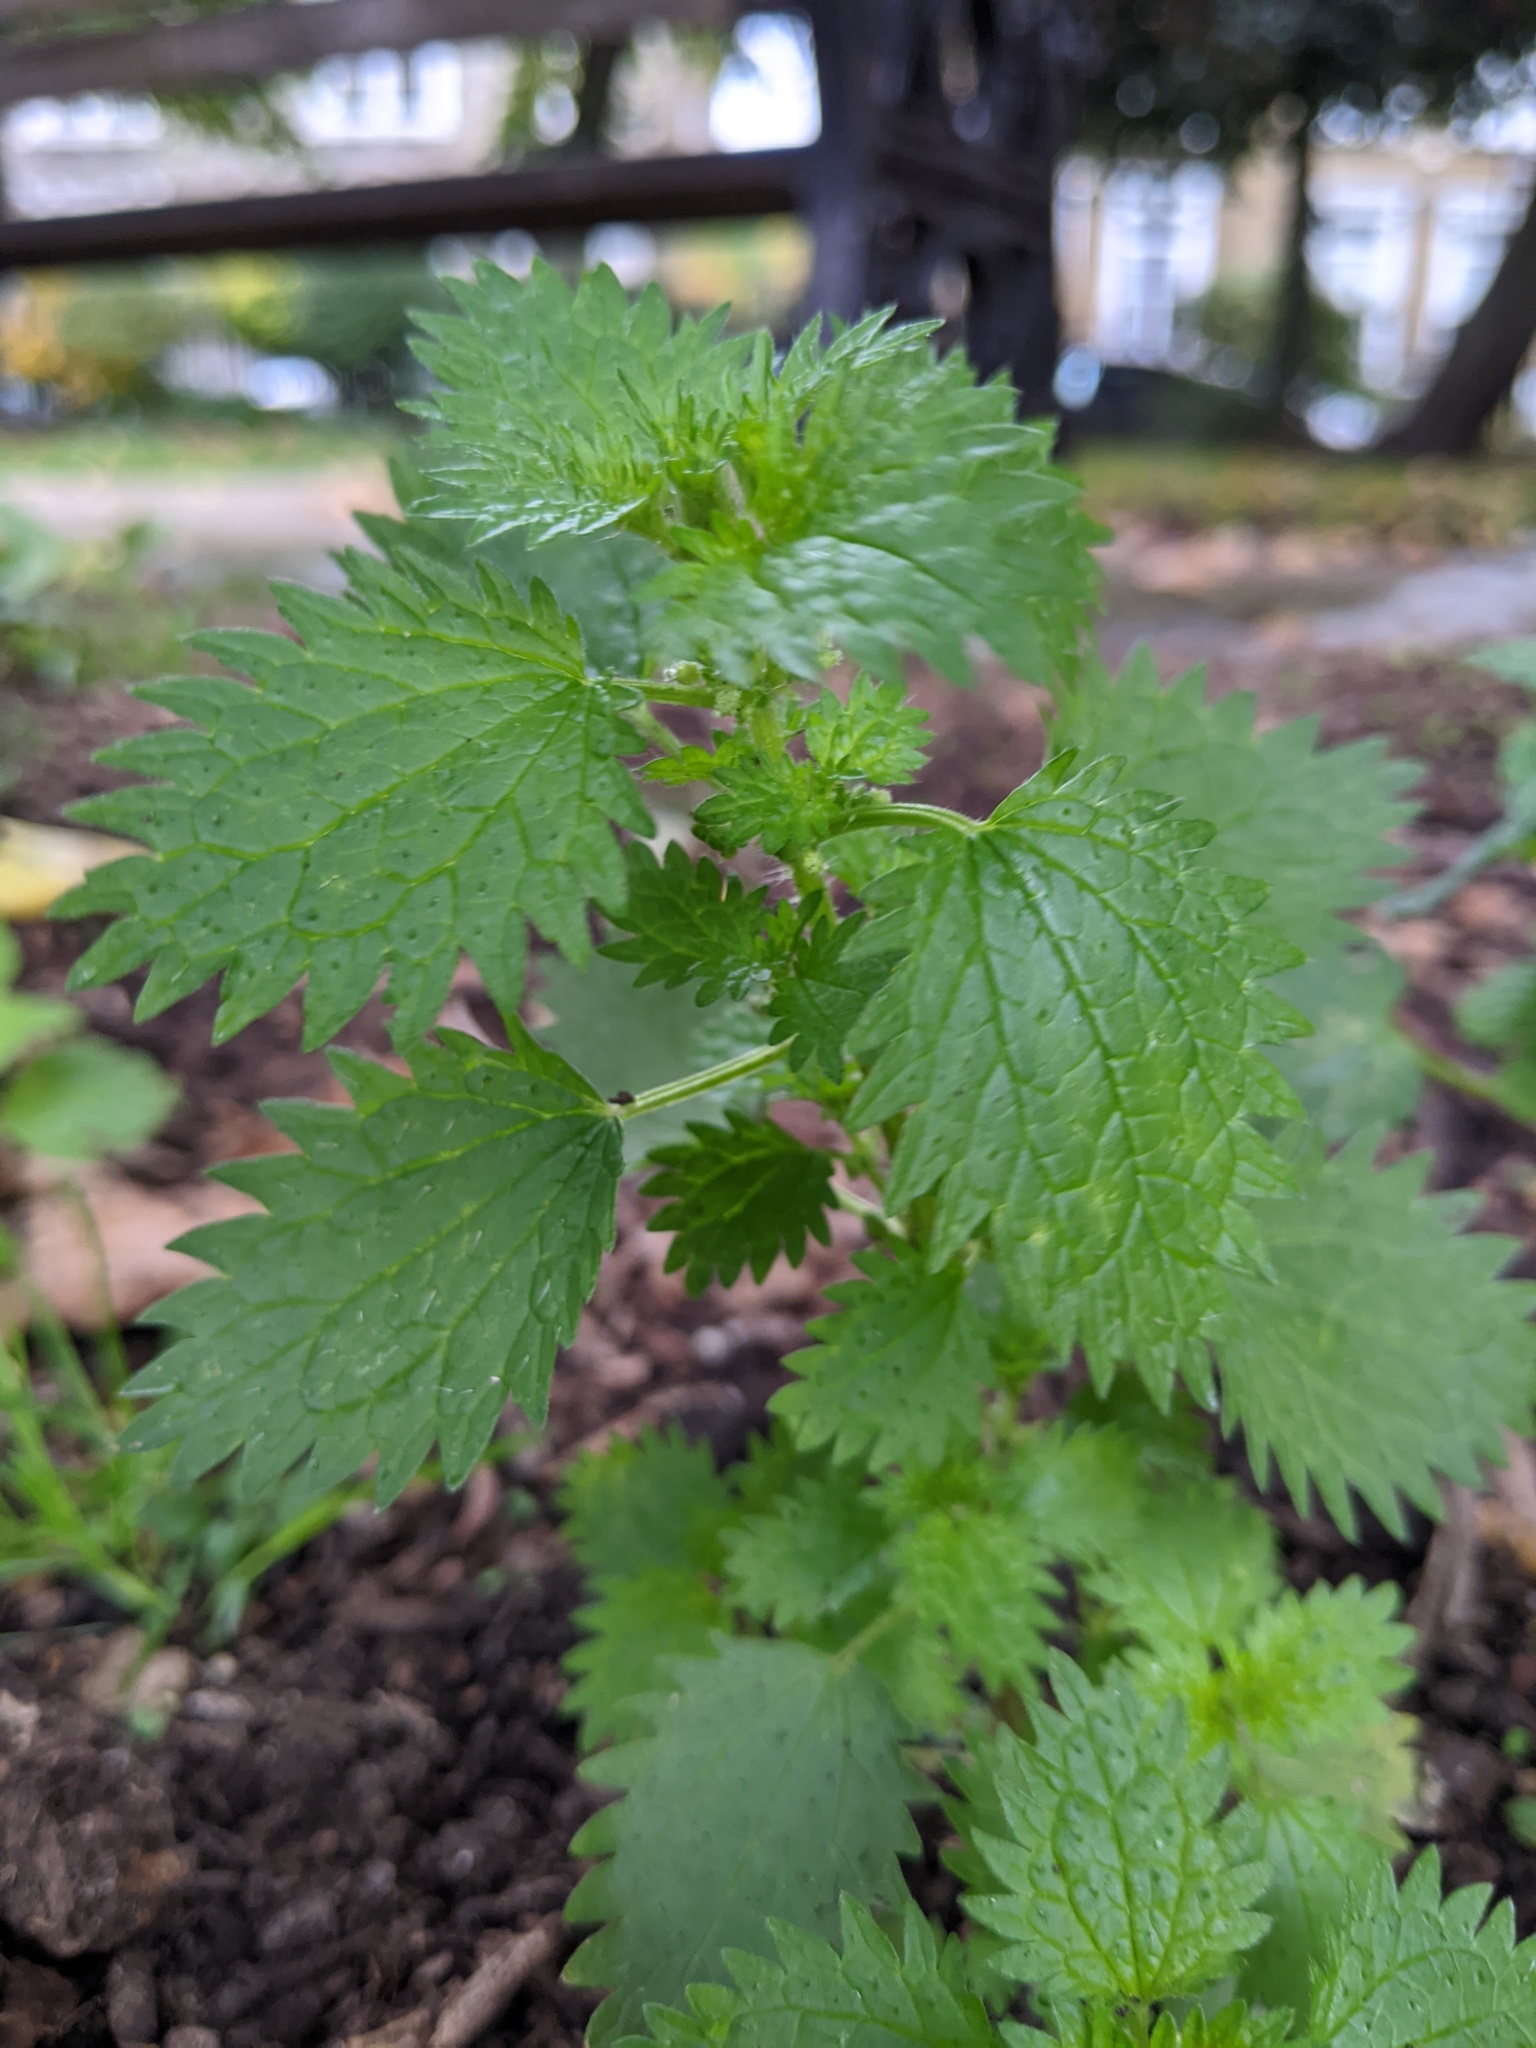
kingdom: Plantae
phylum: Tracheophyta
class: Magnoliopsida
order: Rosales
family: Urticaceae
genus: Urtica
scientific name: Urtica urens
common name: Dwarf nettle
